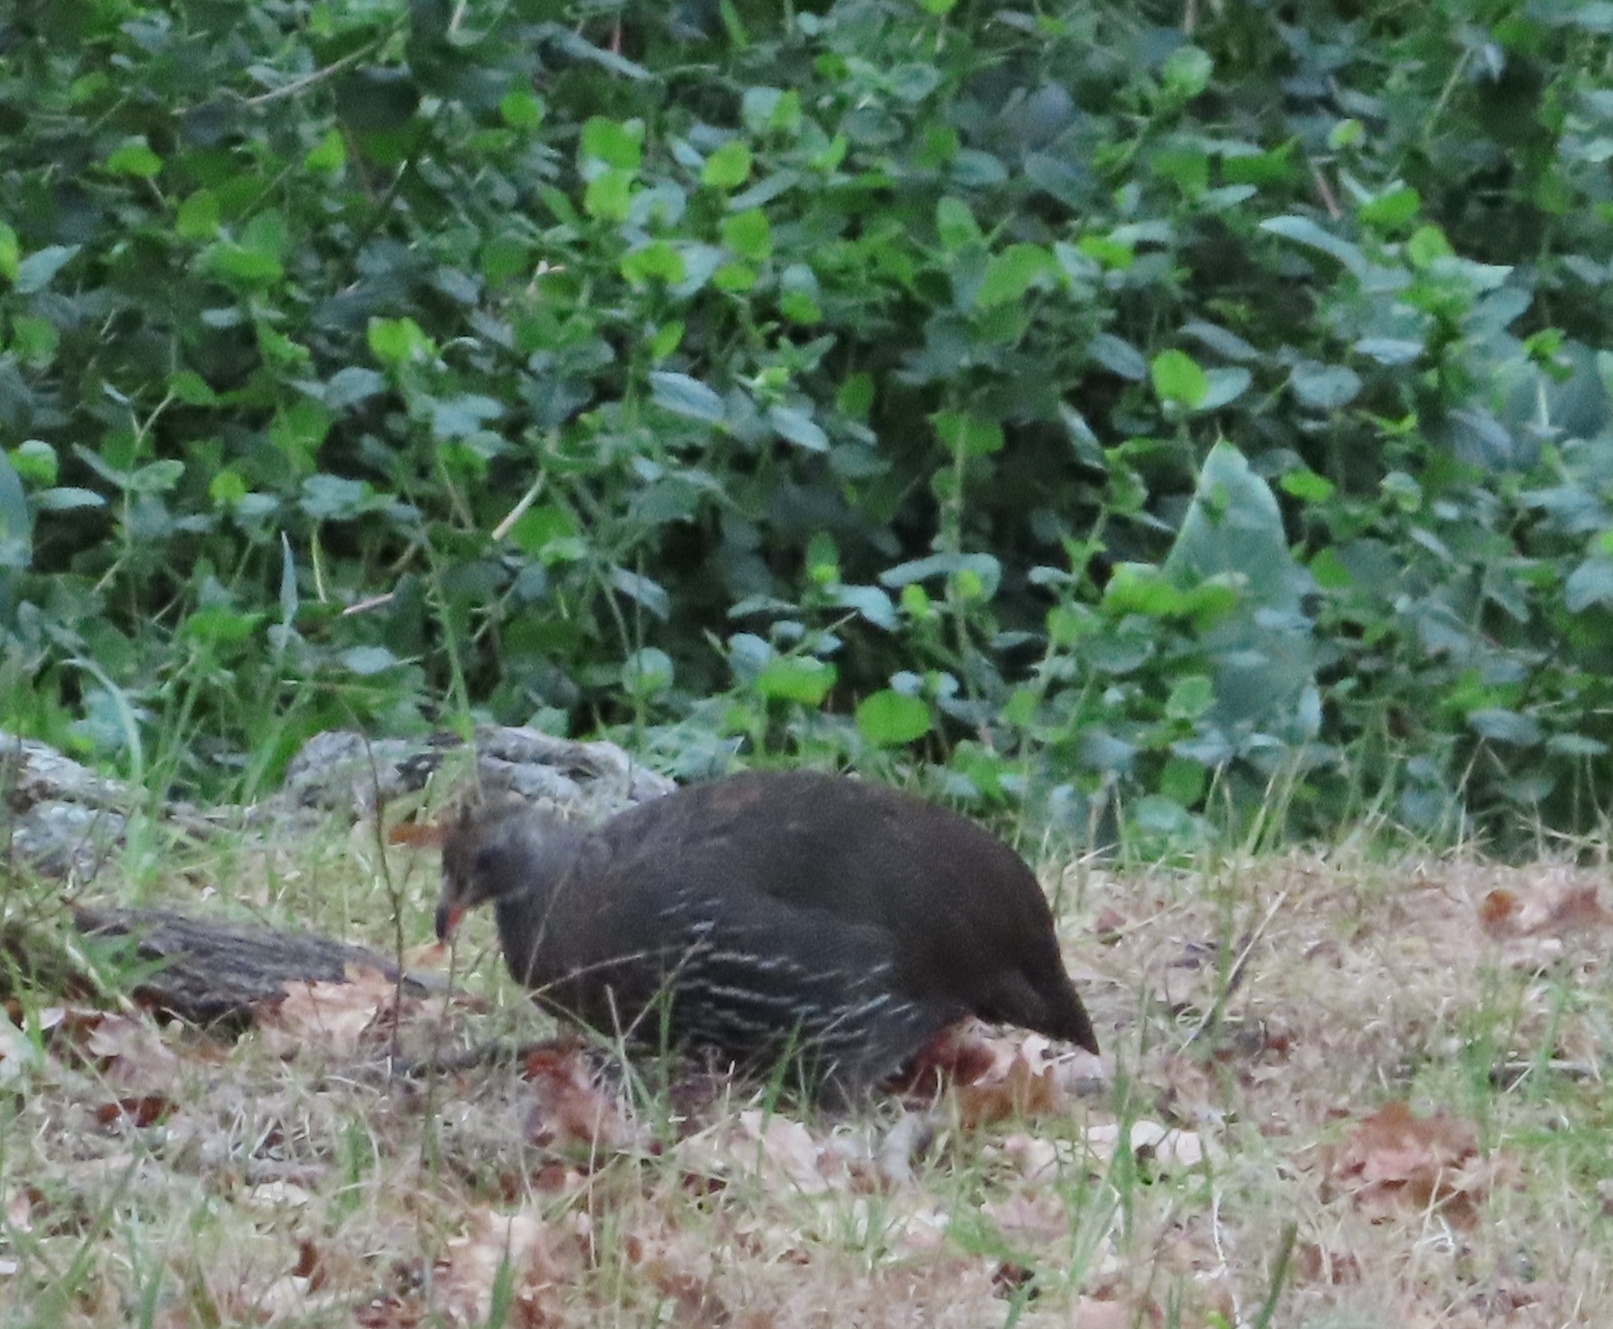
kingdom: Animalia
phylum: Chordata
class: Aves
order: Galliformes
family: Phasianidae
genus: Pternistis
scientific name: Pternistis capensis
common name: Cape spurfowl
